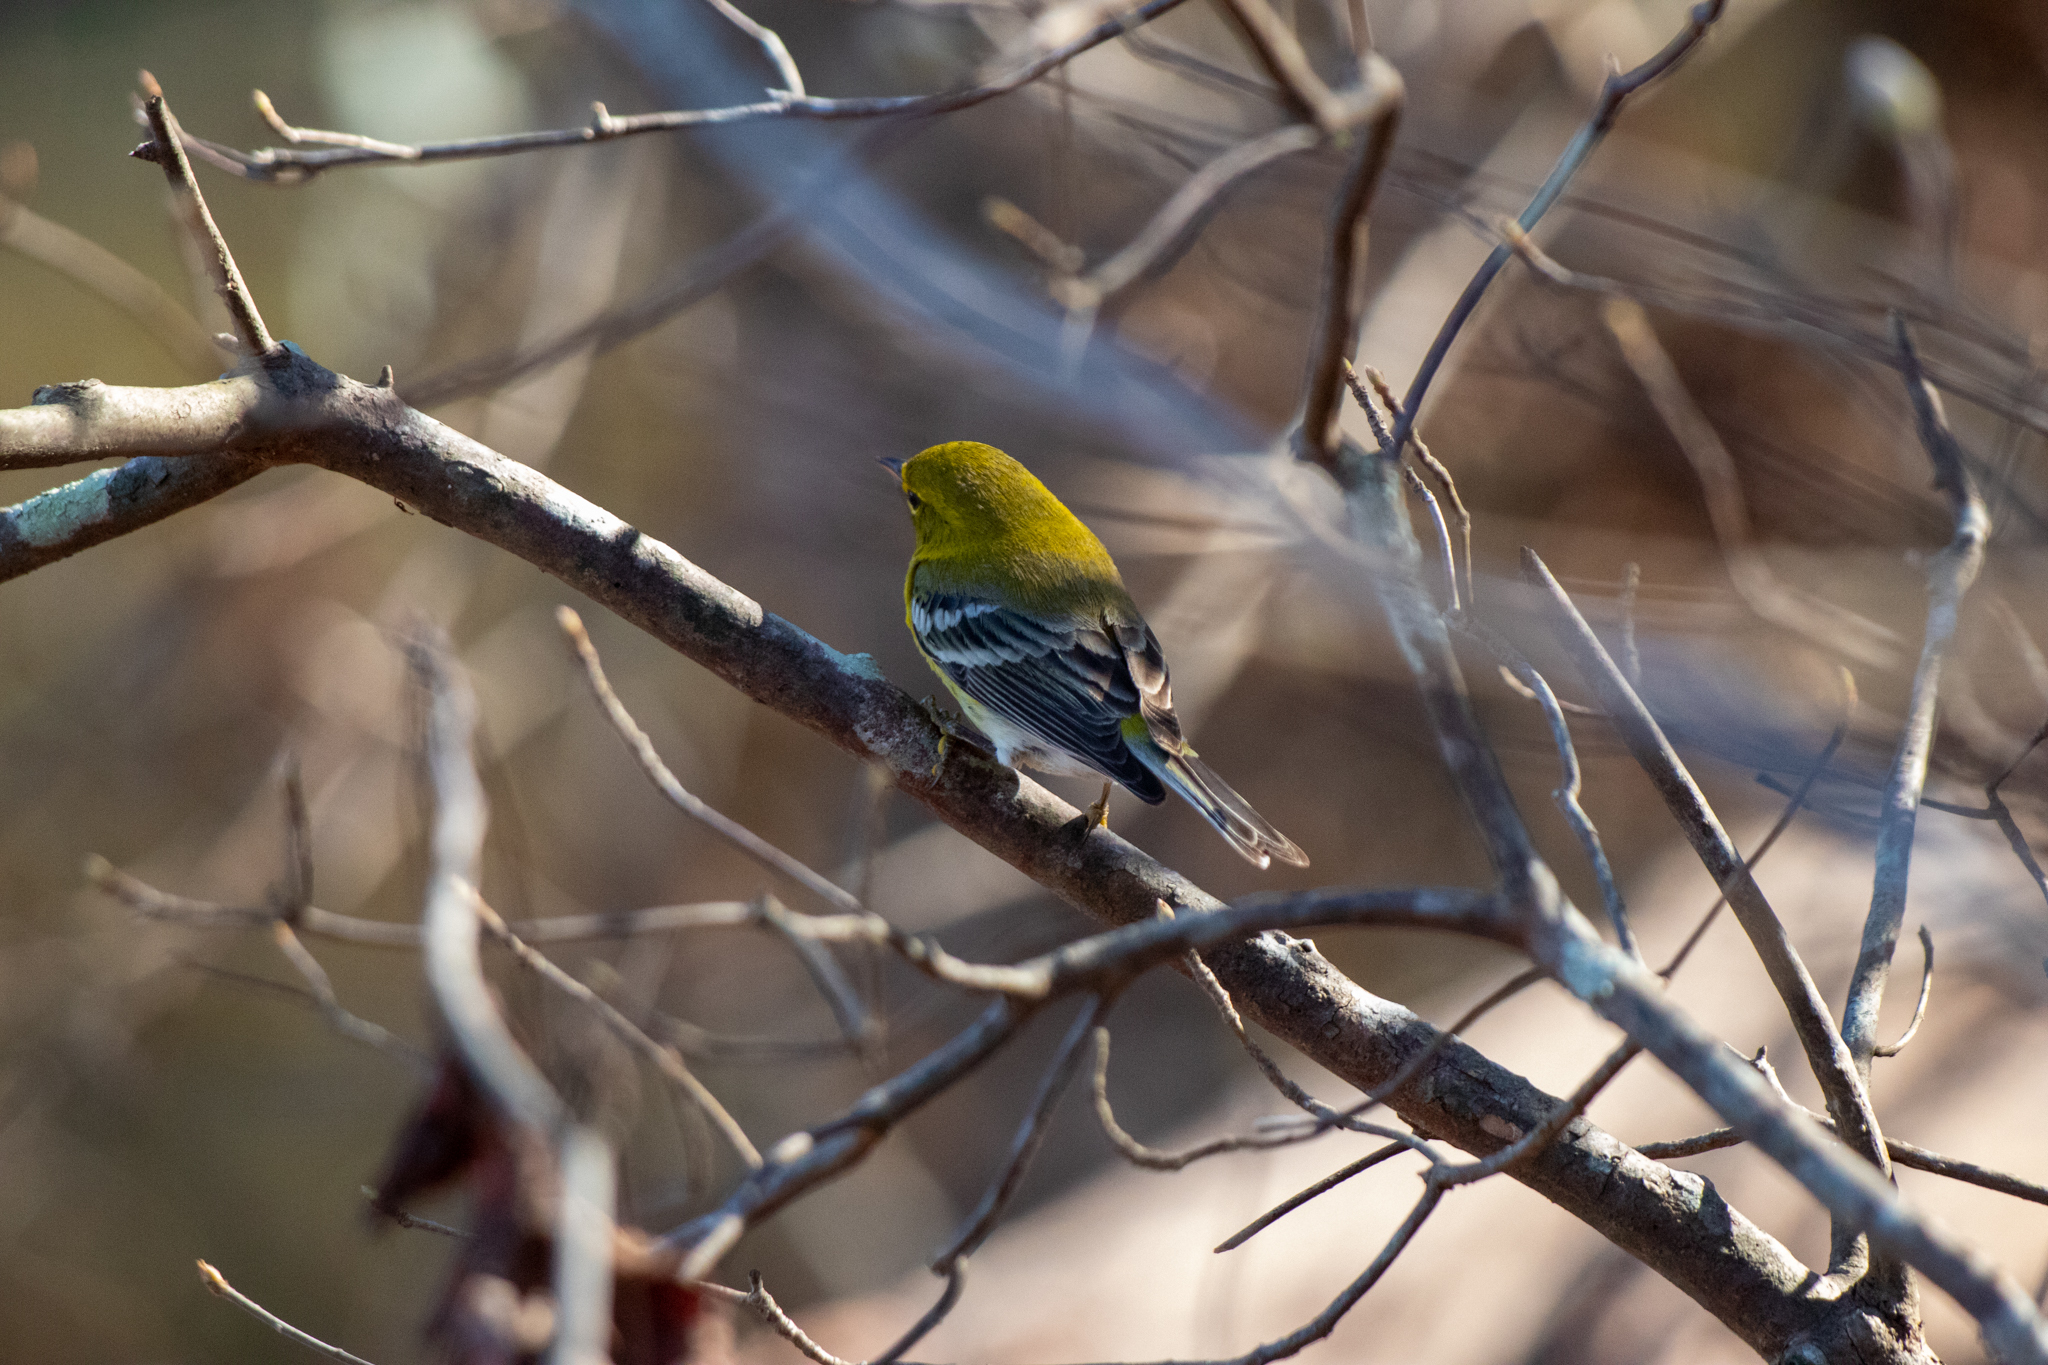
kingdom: Animalia
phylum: Chordata
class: Aves
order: Passeriformes
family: Parulidae
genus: Setophaga
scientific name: Setophaga pinus
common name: Pine warbler
